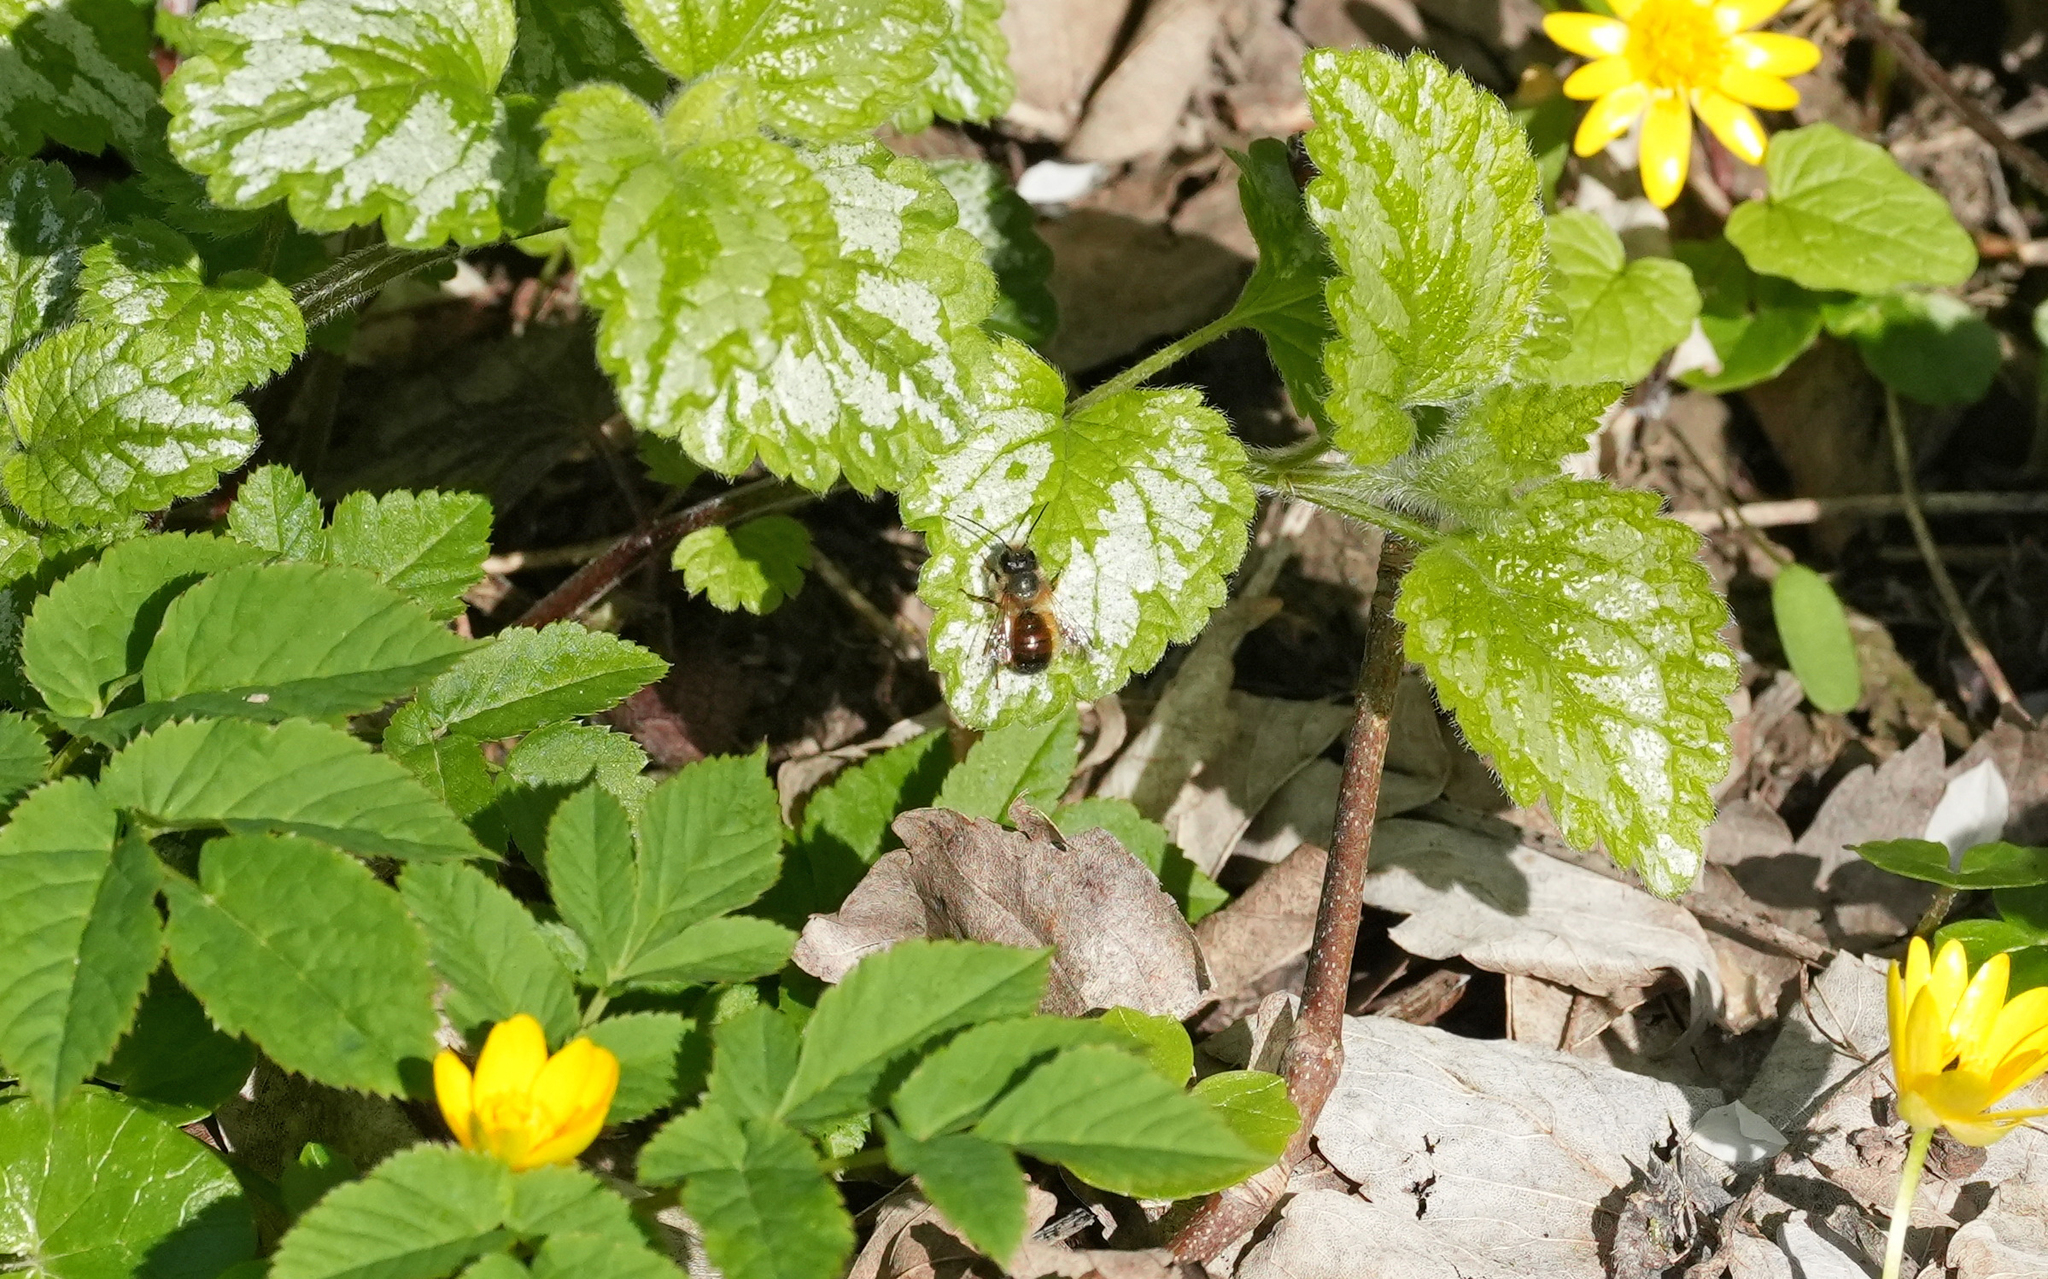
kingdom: Animalia
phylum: Arthropoda
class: Insecta
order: Hymenoptera
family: Megachilidae
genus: Osmia
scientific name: Osmia bicornis
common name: Red mason bee
